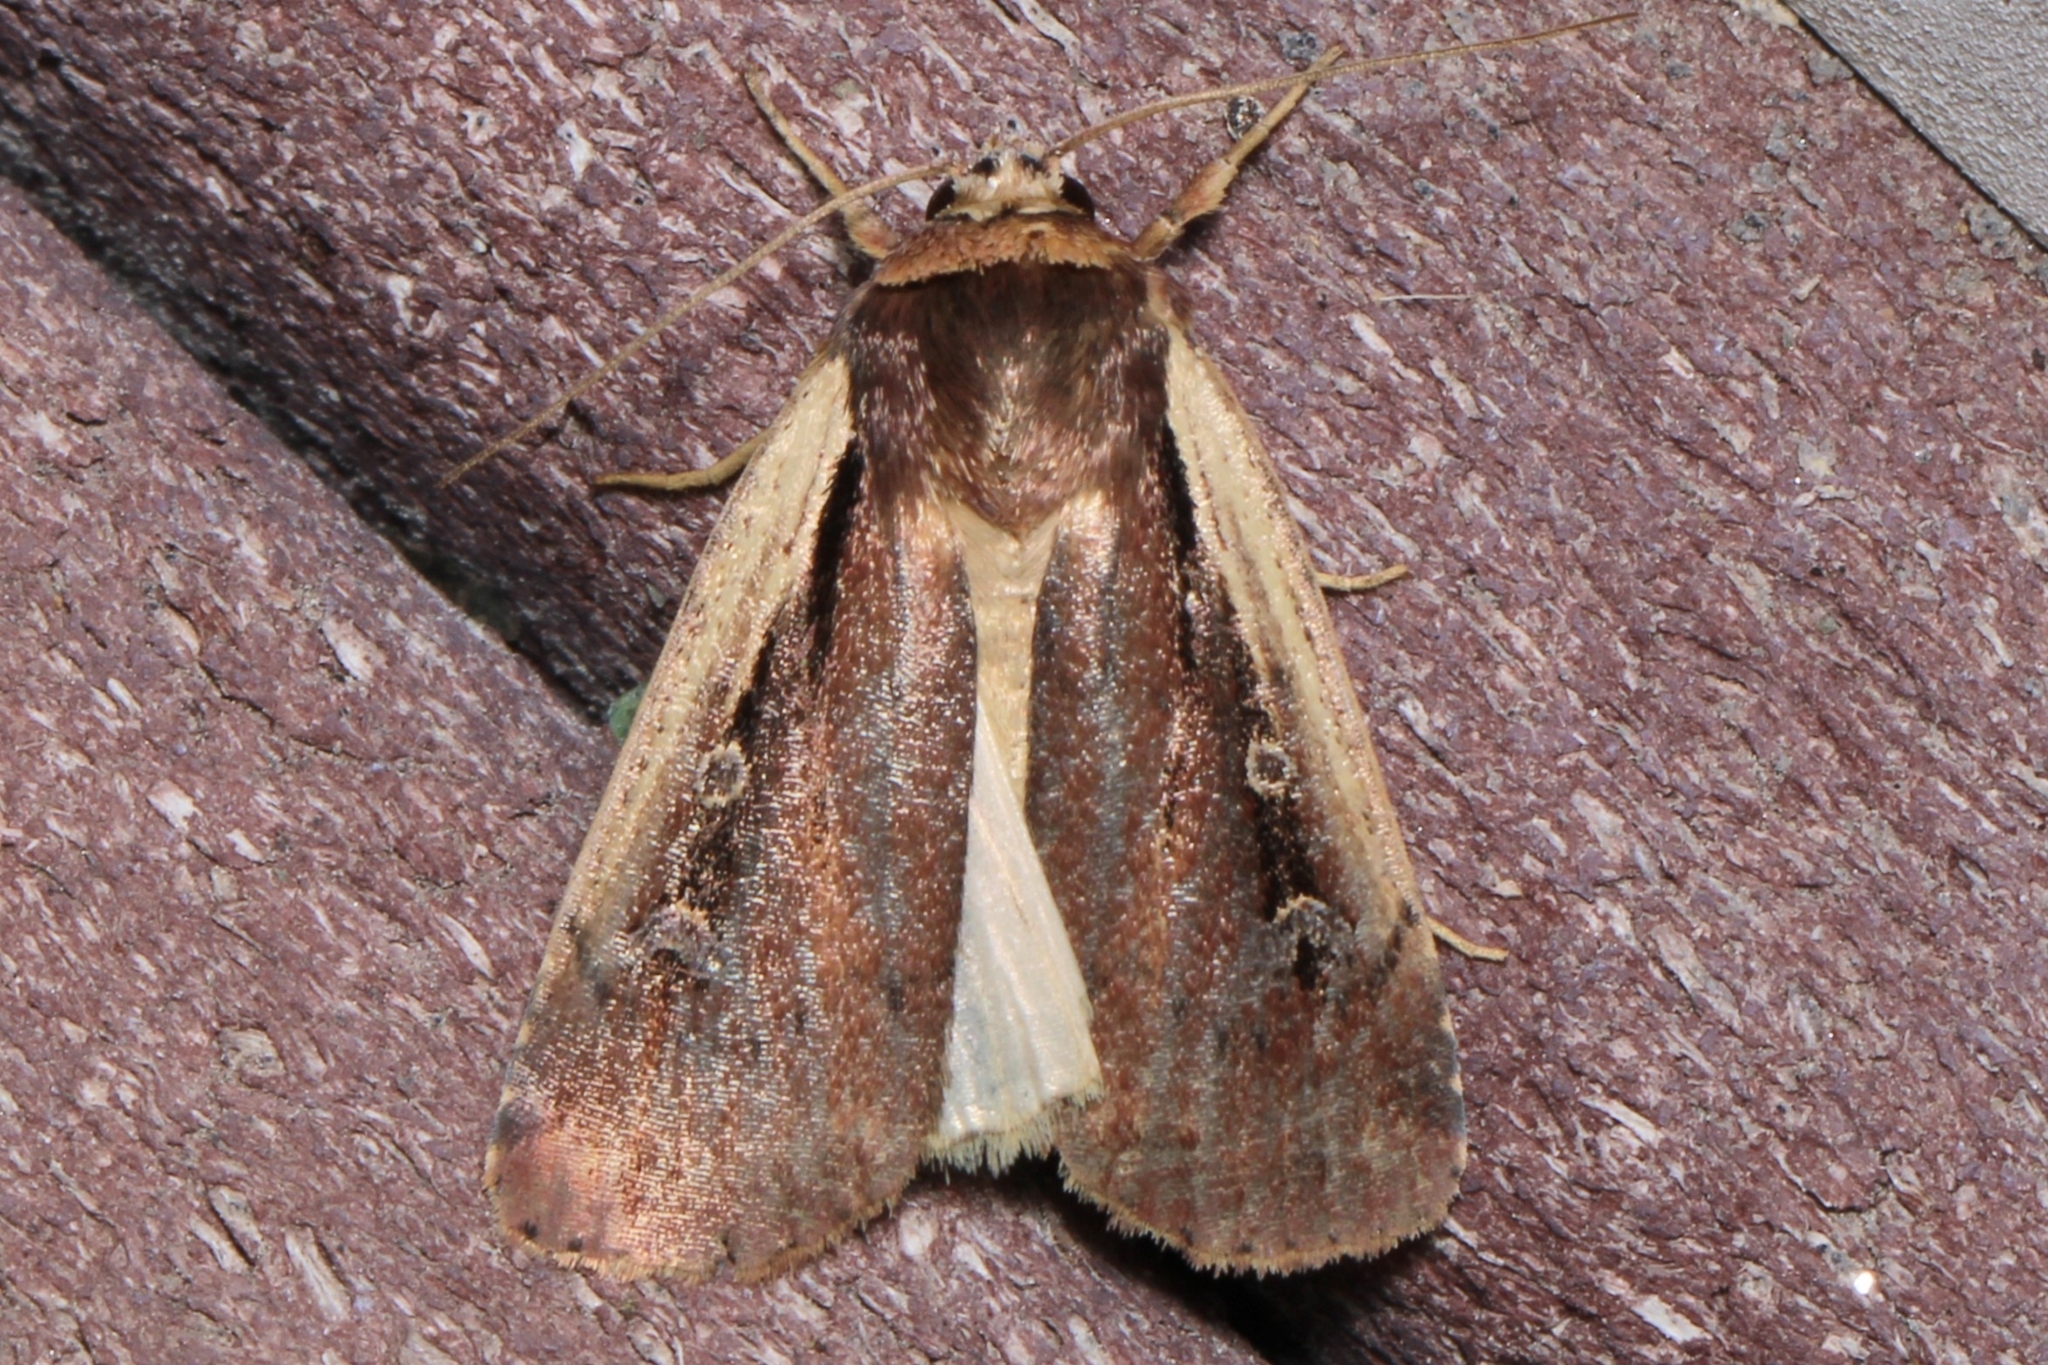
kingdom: Animalia
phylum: Arthropoda
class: Insecta
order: Lepidoptera
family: Noctuidae
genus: Ochropleura
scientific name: Ochropleura implecta
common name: Flame-shouldered dart
